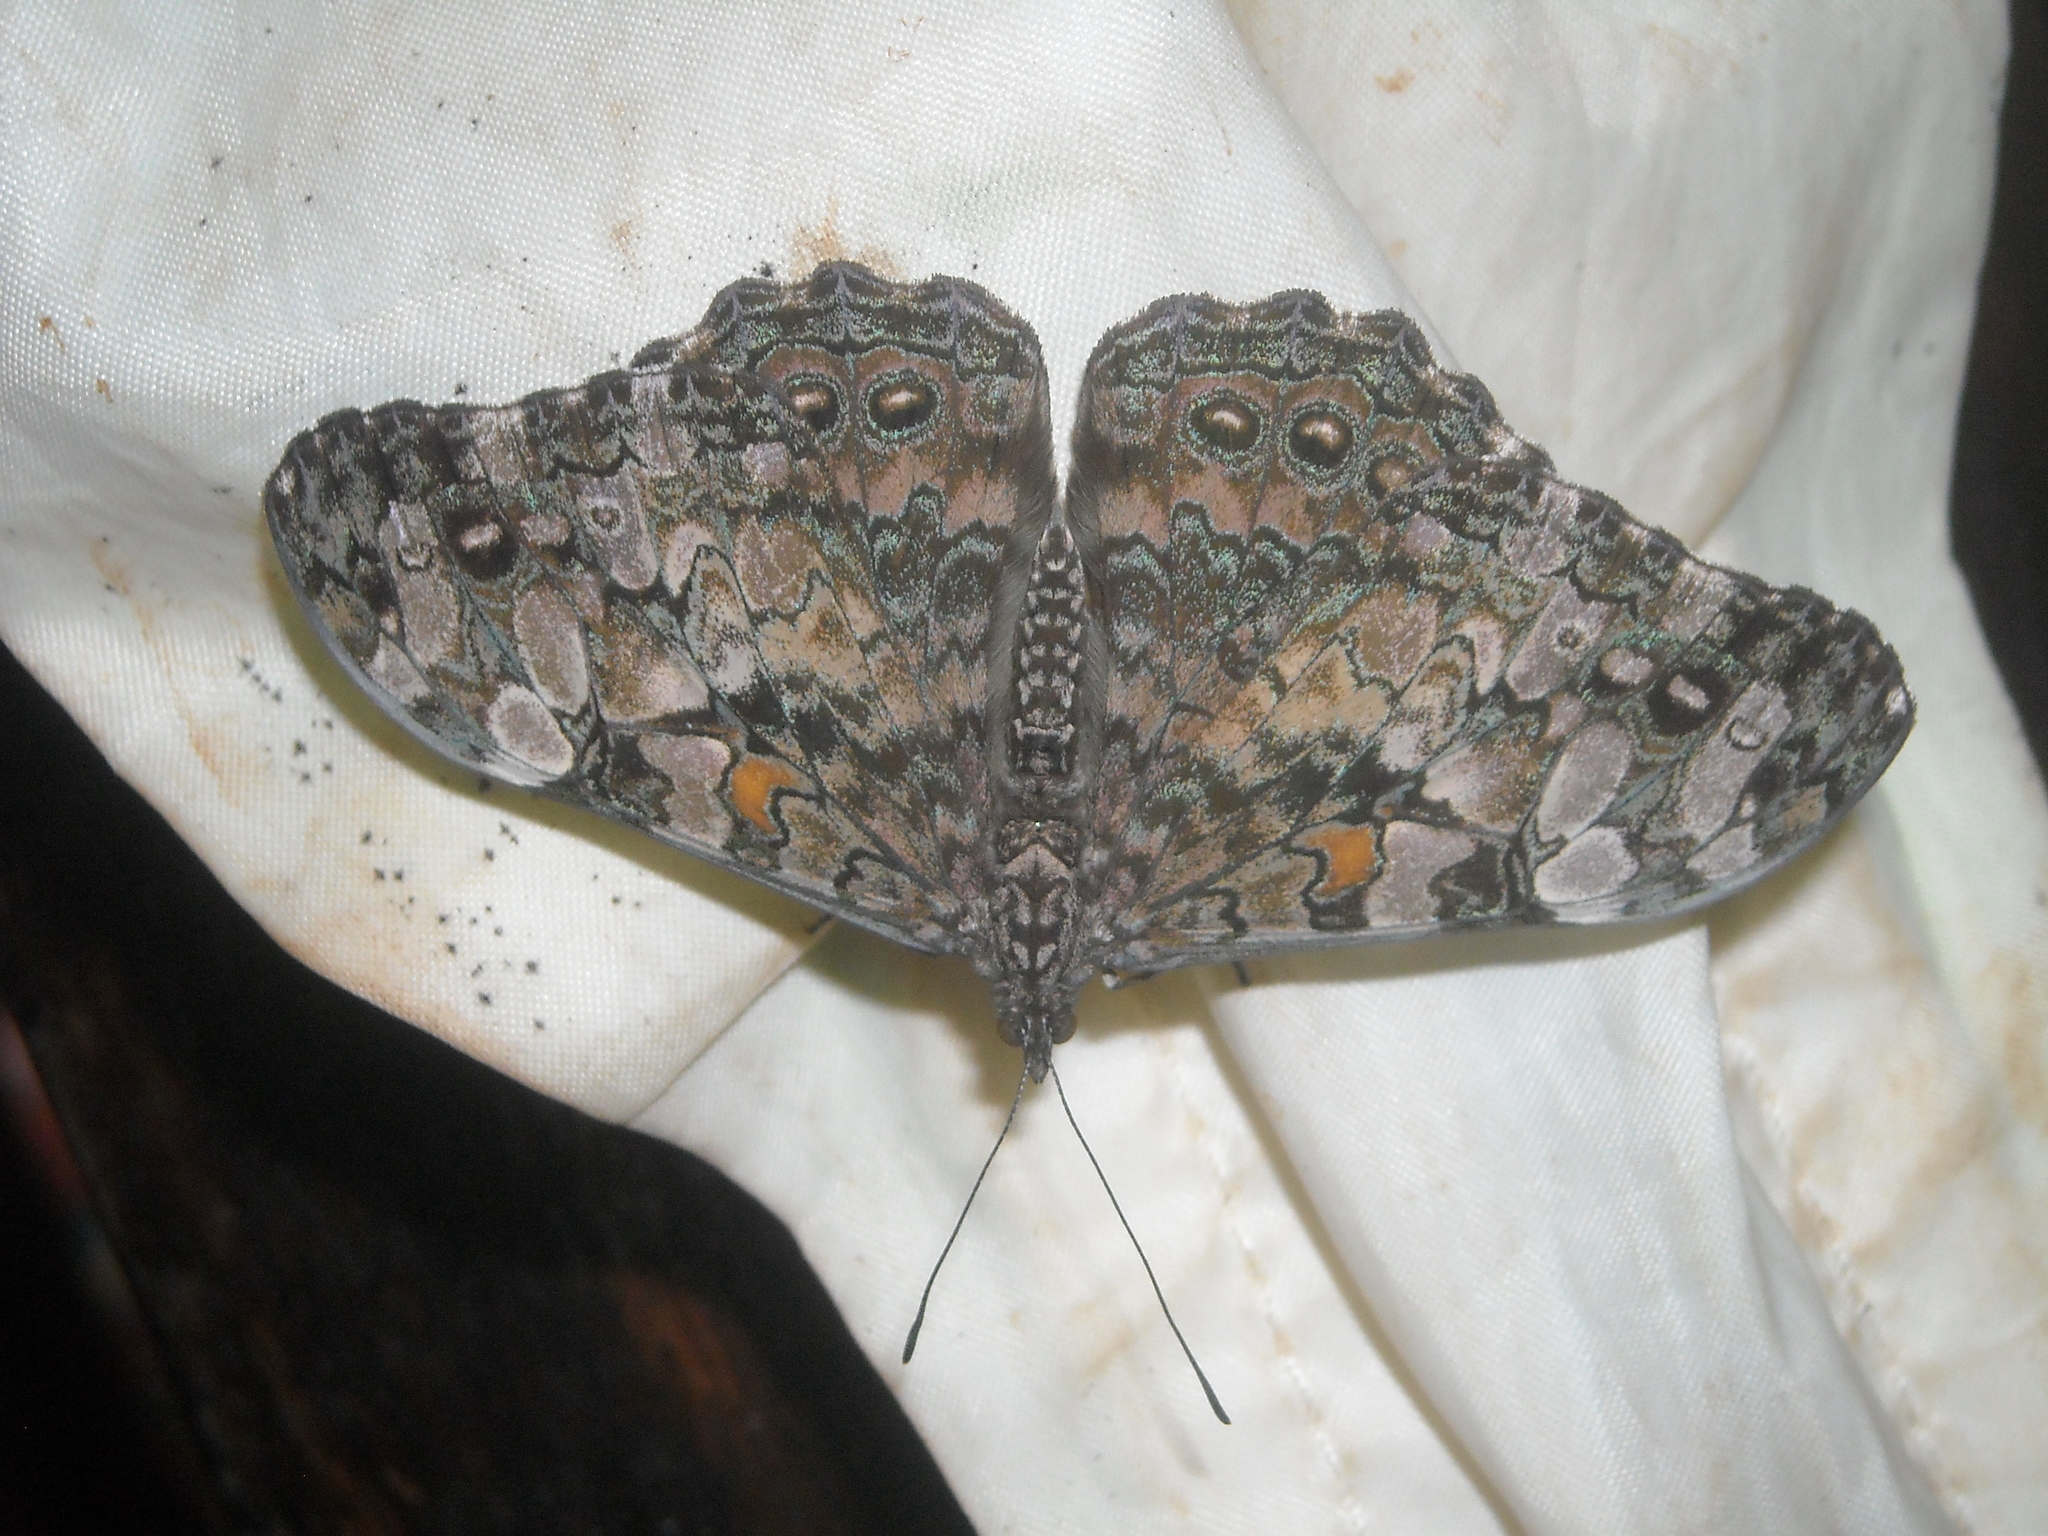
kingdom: Animalia
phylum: Arthropoda
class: Insecta
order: Lepidoptera
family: Nymphalidae
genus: Hamadryas
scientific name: Hamadryas epinome
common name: Epinome cracker
